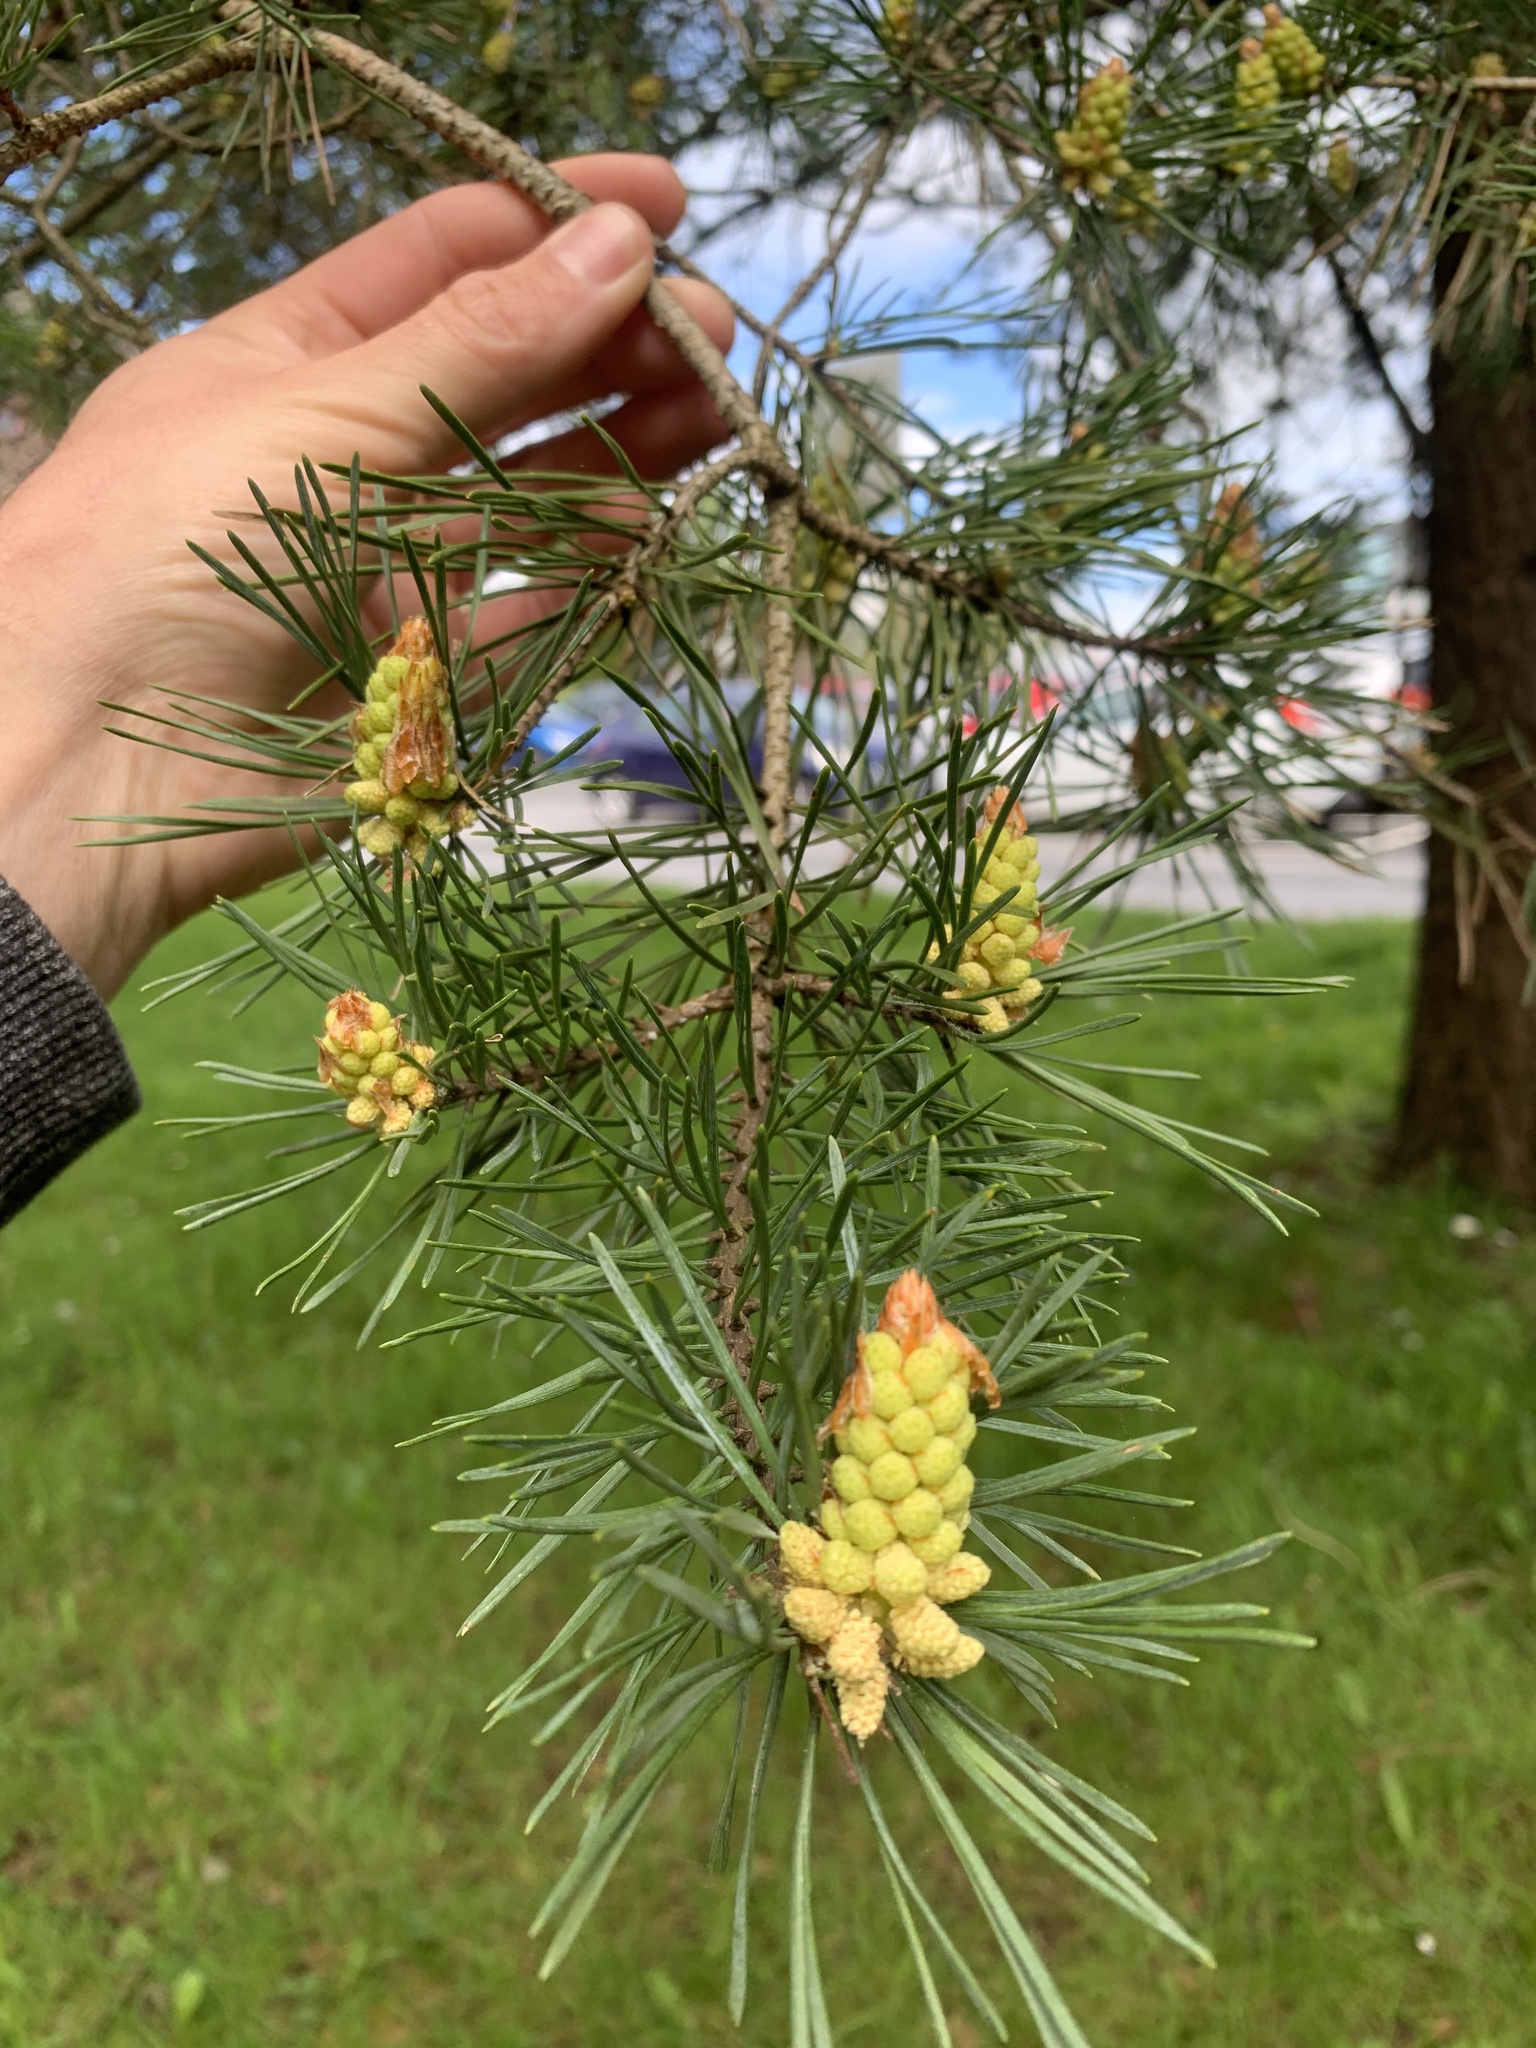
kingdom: Plantae
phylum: Tracheophyta
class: Pinopsida
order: Pinales
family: Pinaceae
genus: Pinus
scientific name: Pinus sylvestris
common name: Scots pine
